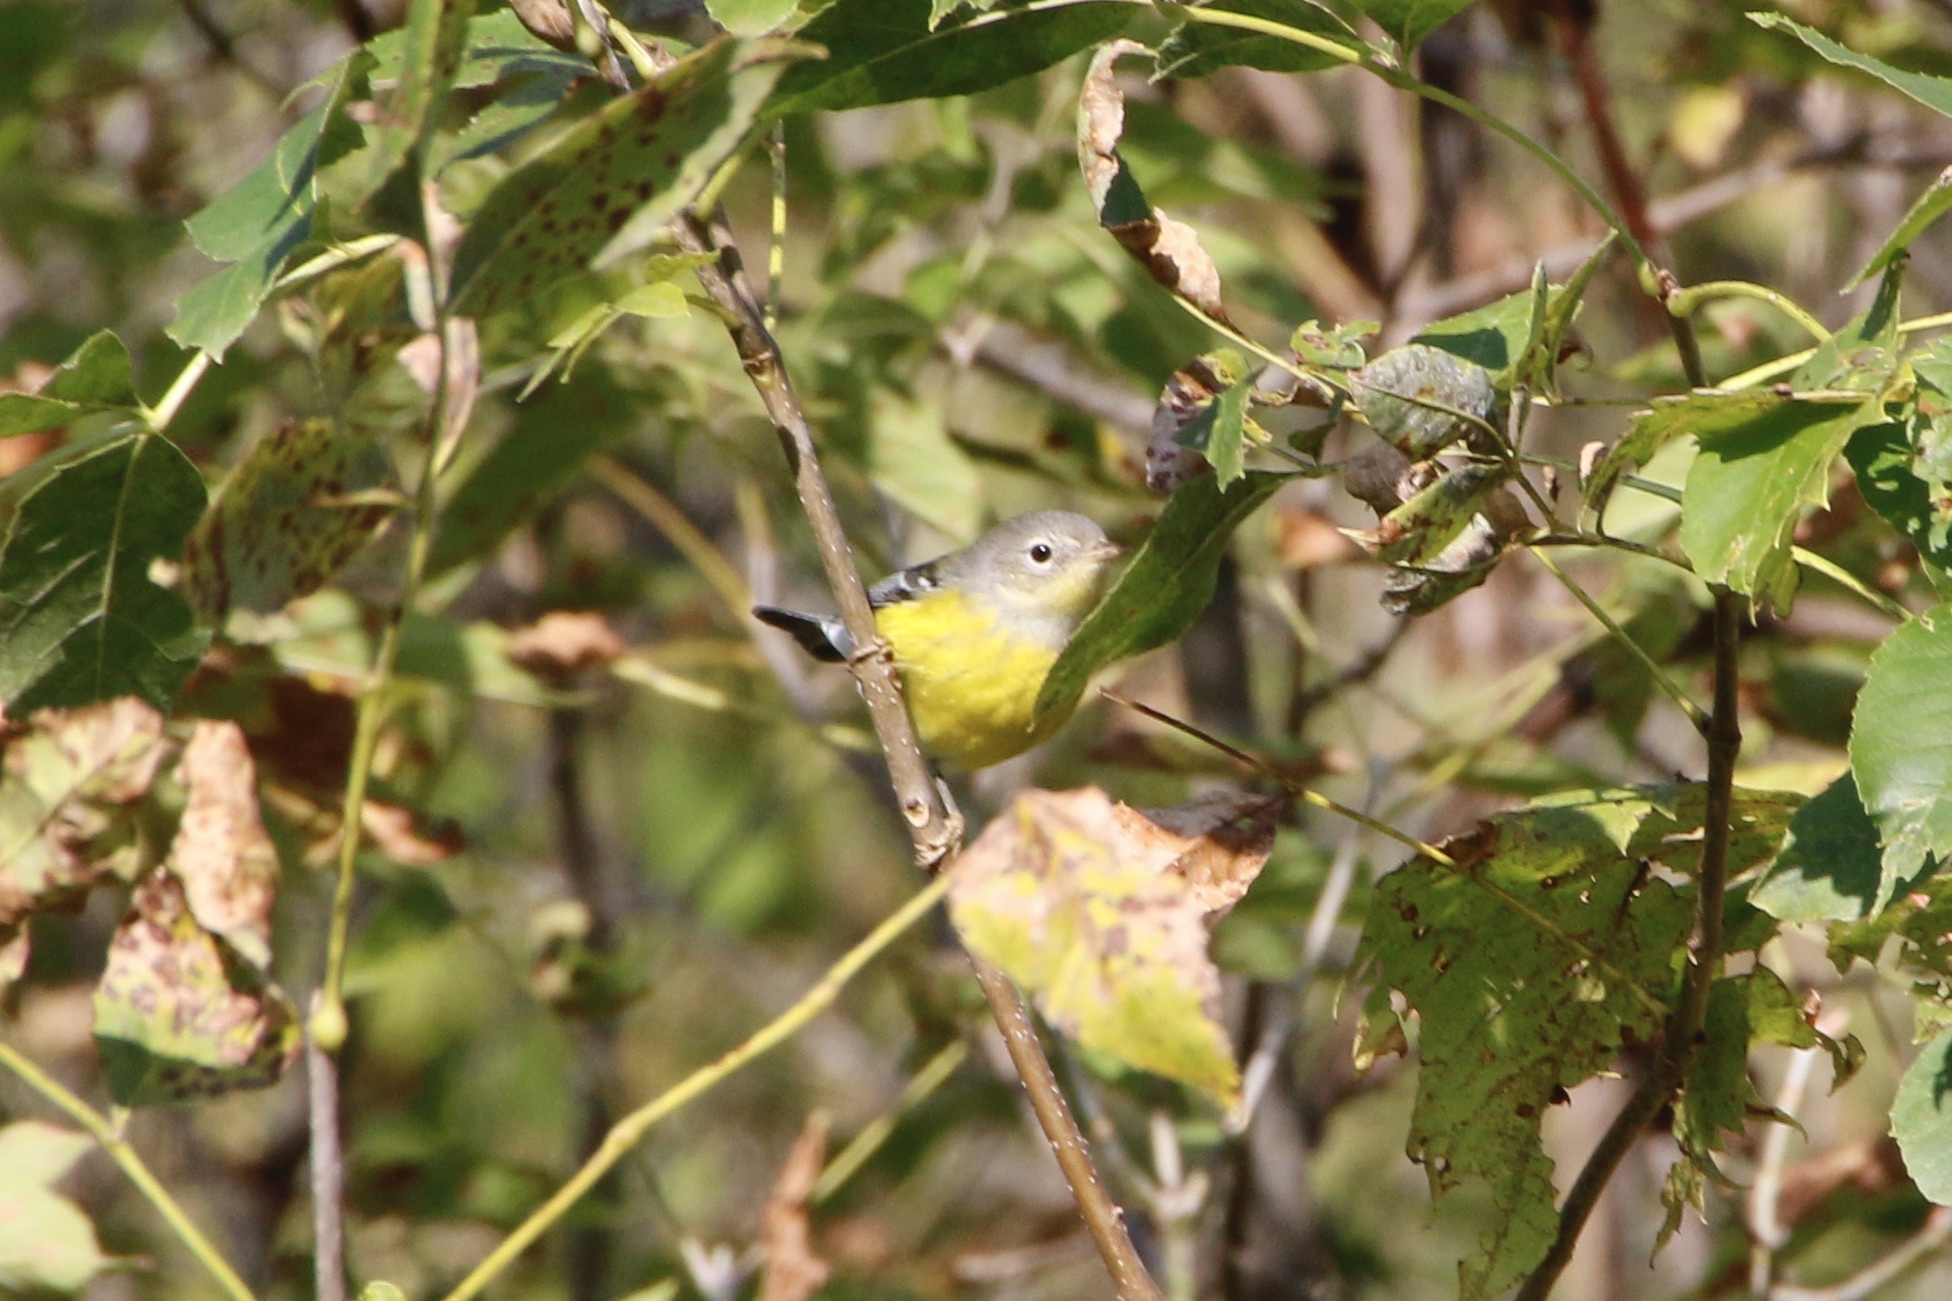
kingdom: Animalia
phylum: Chordata
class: Aves
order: Passeriformes
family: Parulidae
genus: Setophaga
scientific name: Setophaga magnolia
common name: Magnolia warbler
